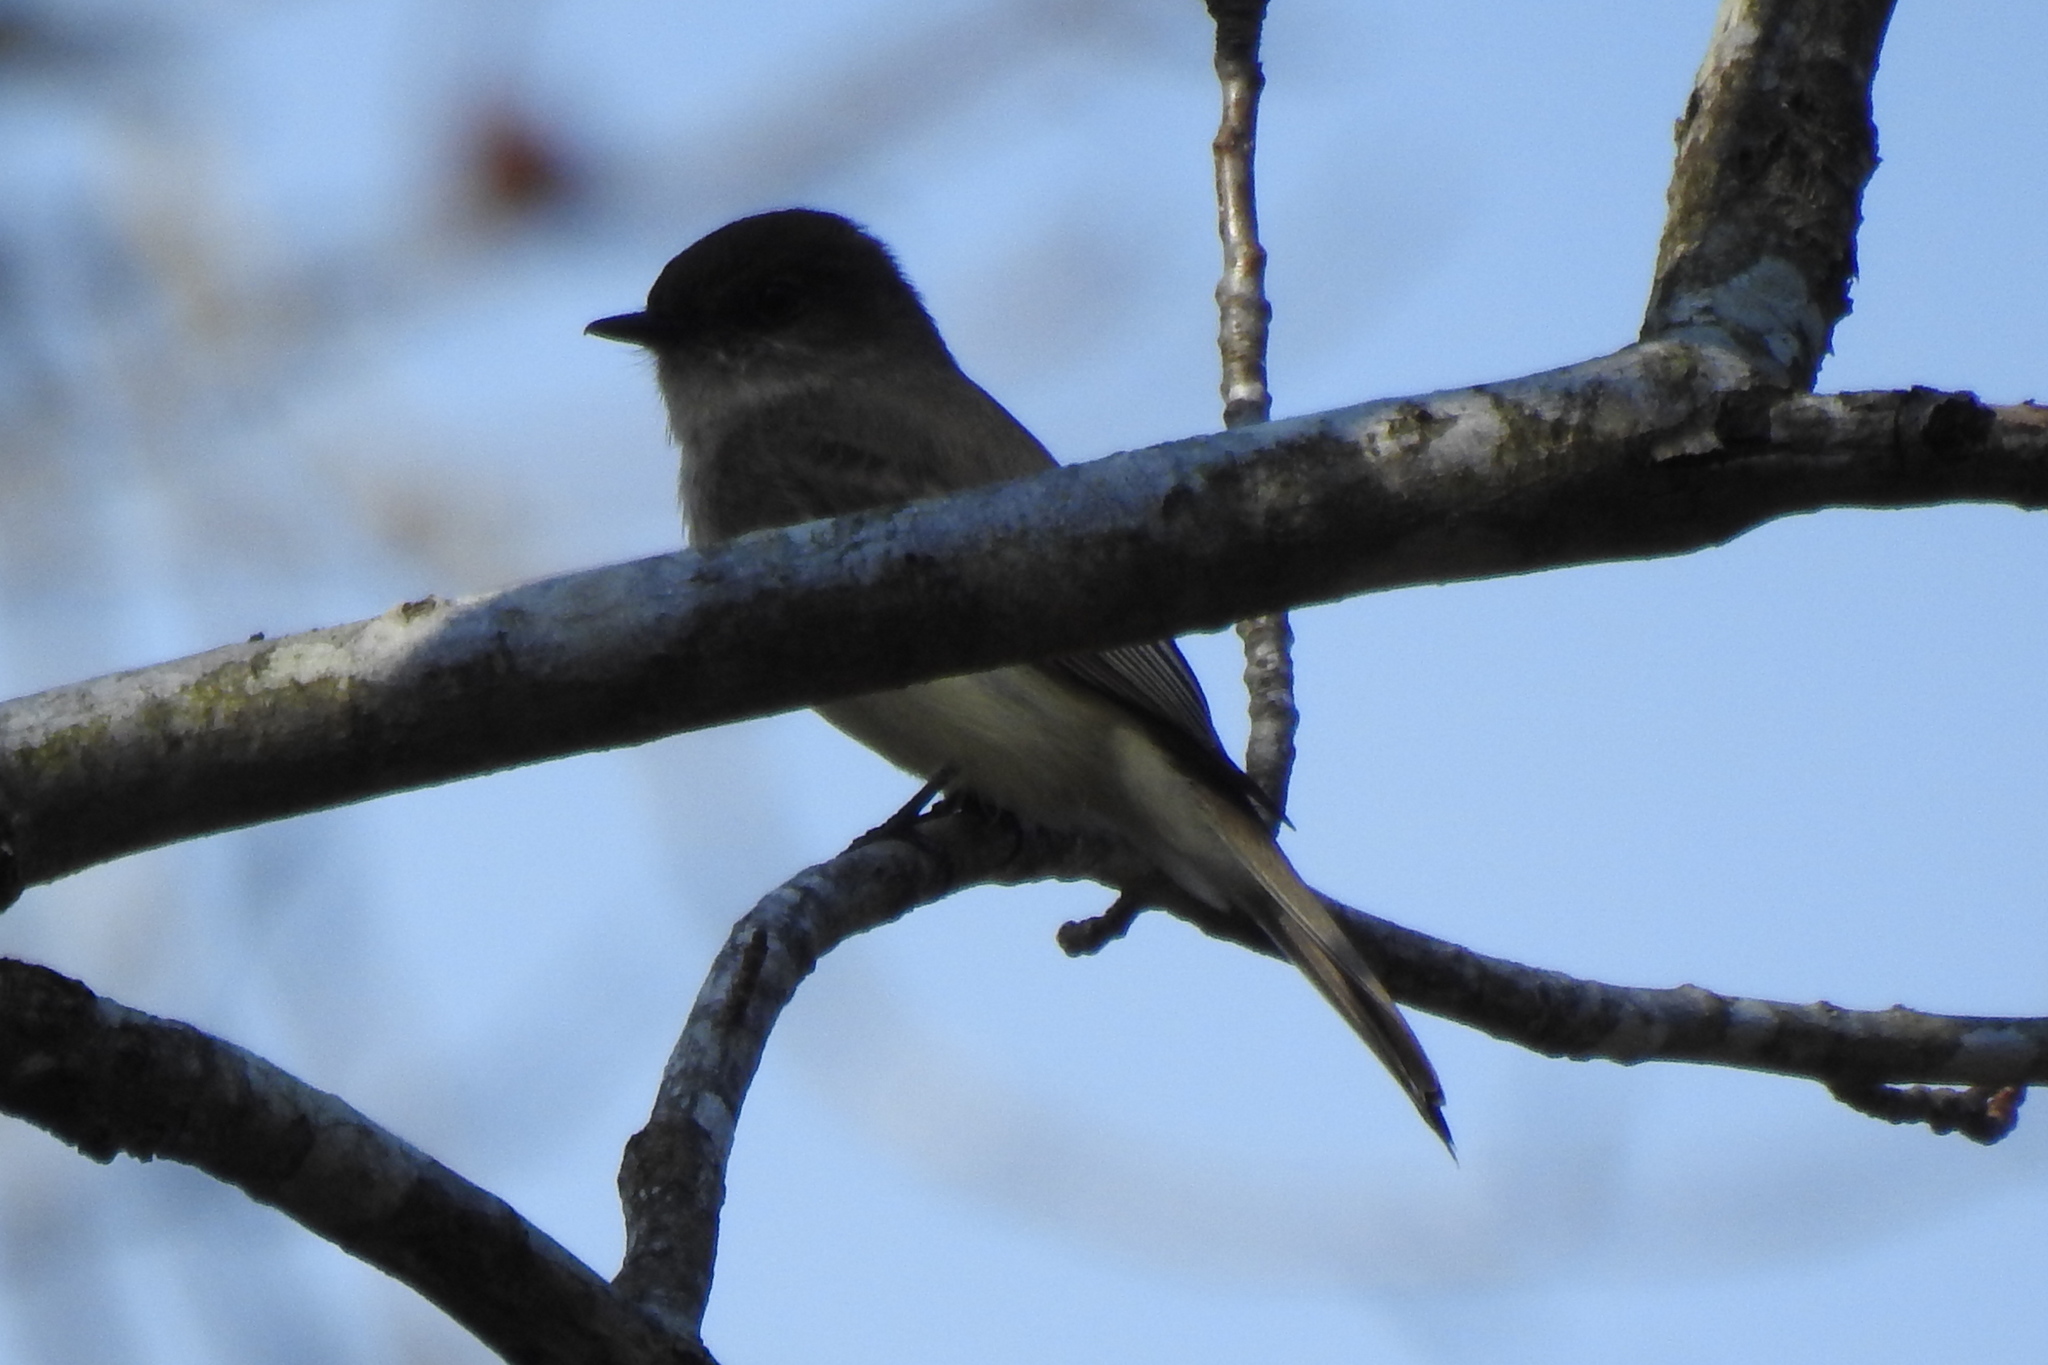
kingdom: Animalia
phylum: Chordata
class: Aves
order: Passeriformes
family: Tyrannidae
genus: Sayornis
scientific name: Sayornis phoebe
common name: Eastern phoebe
